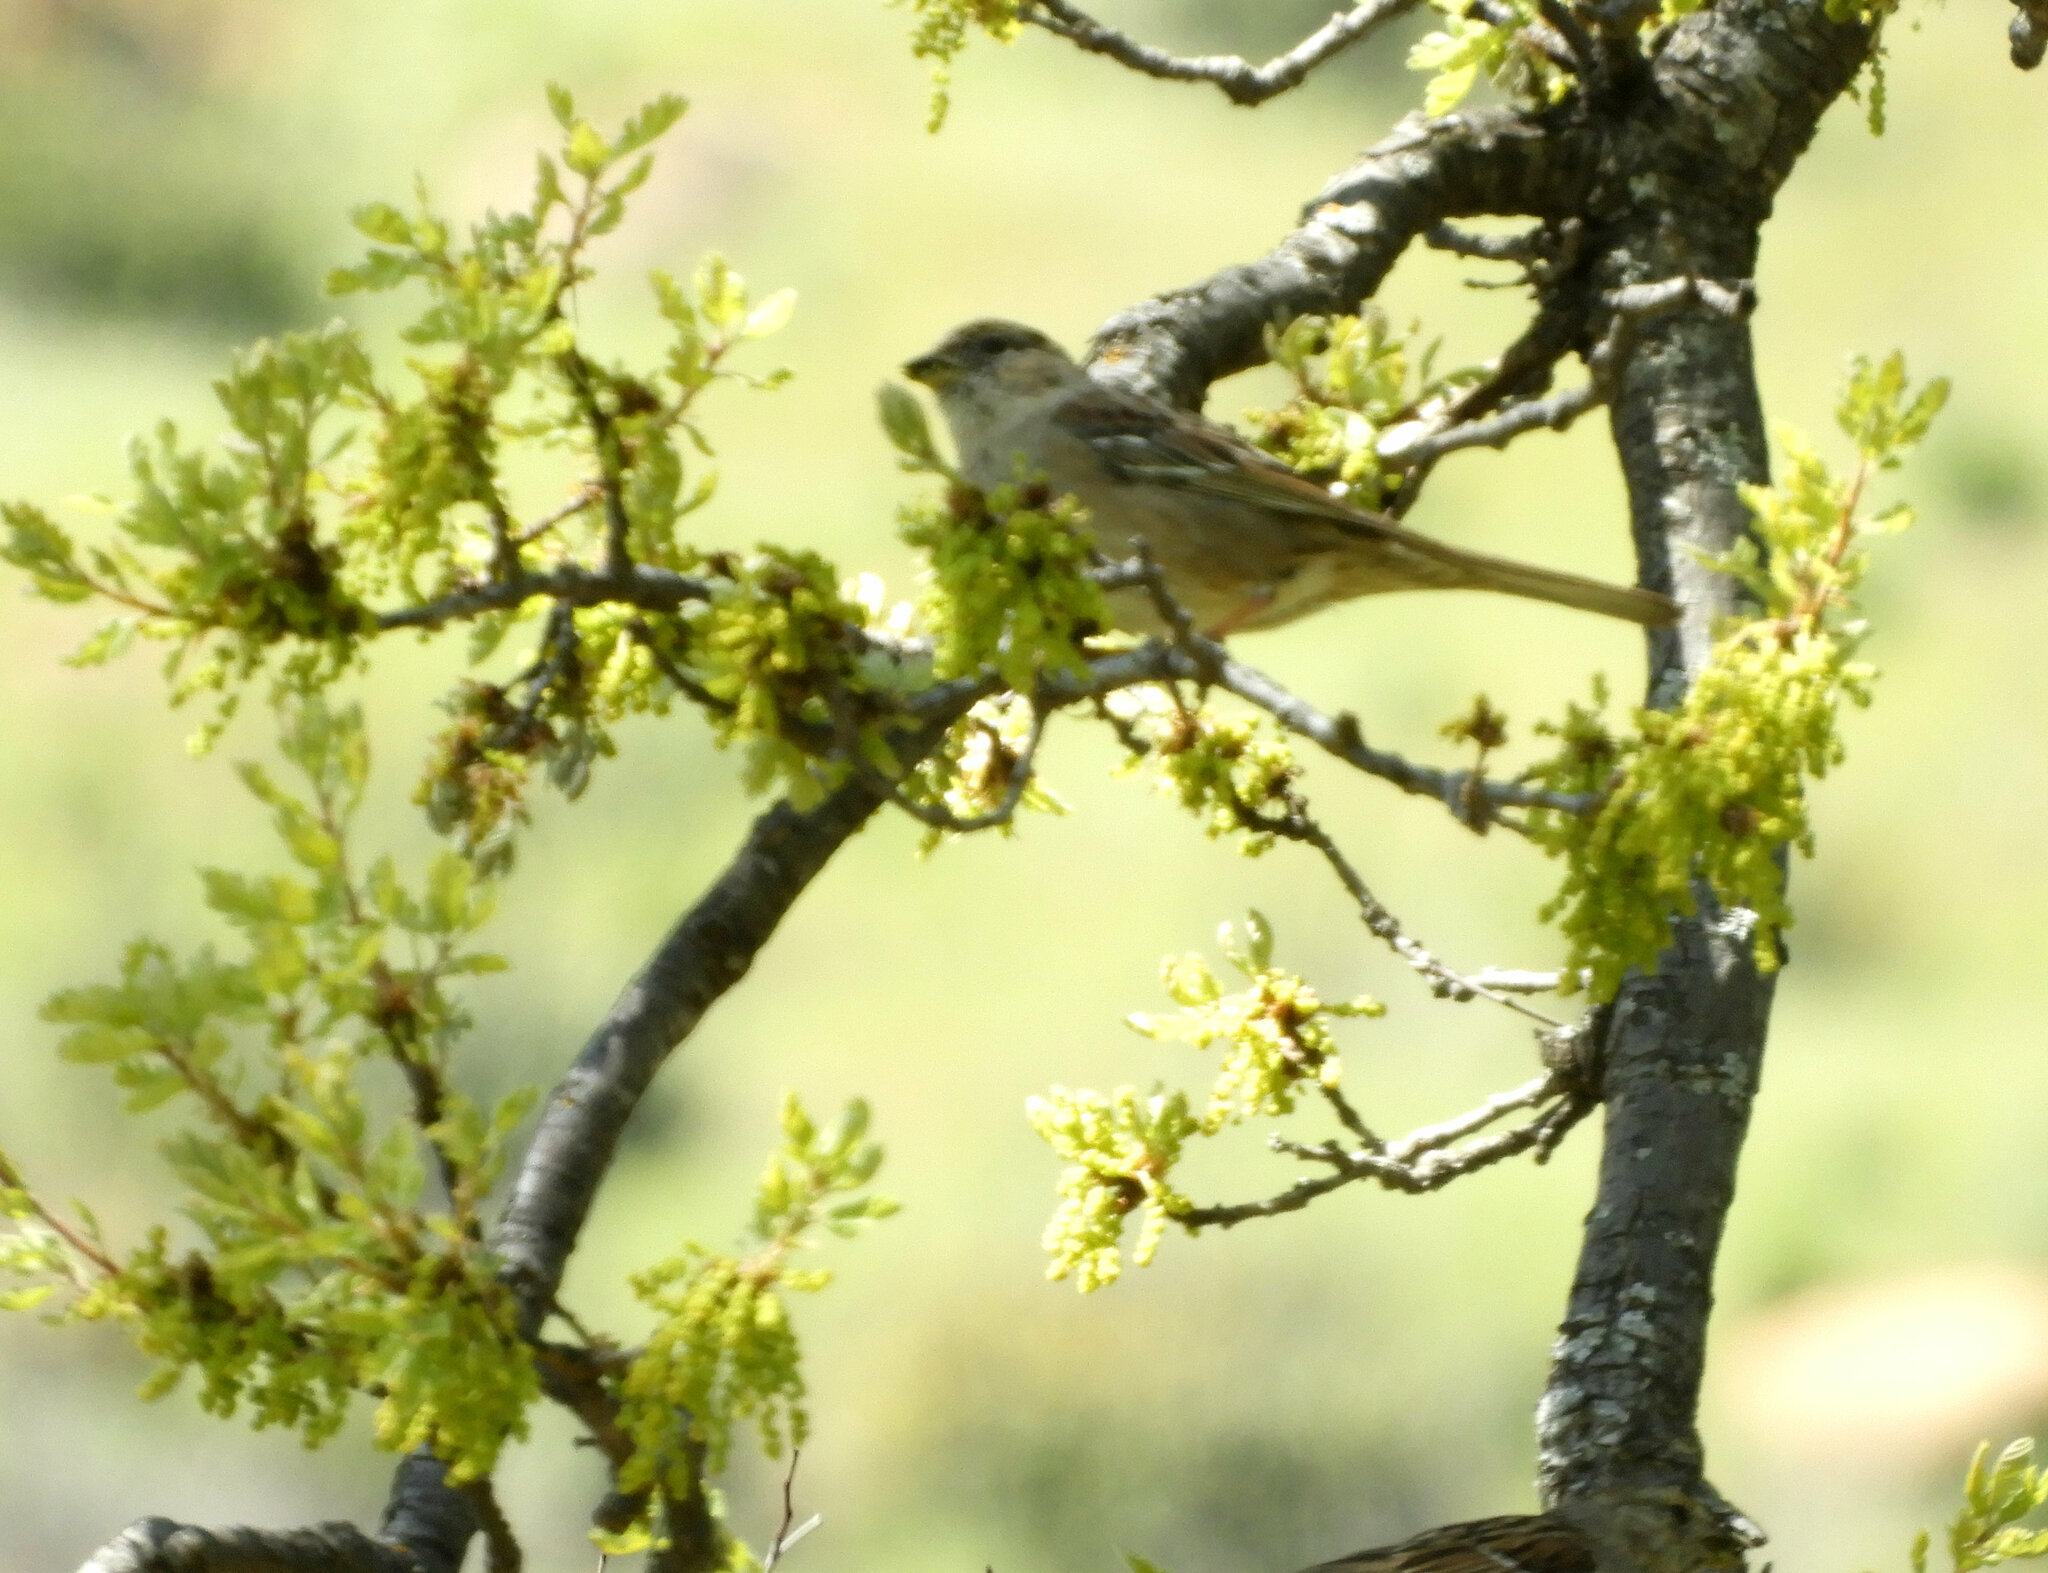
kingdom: Animalia
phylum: Chordata
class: Aves
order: Passeriformes
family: Passerellidae
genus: Zonotrichia
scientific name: Zonotrichia atricapilla
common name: Golden-crowned sparrow
